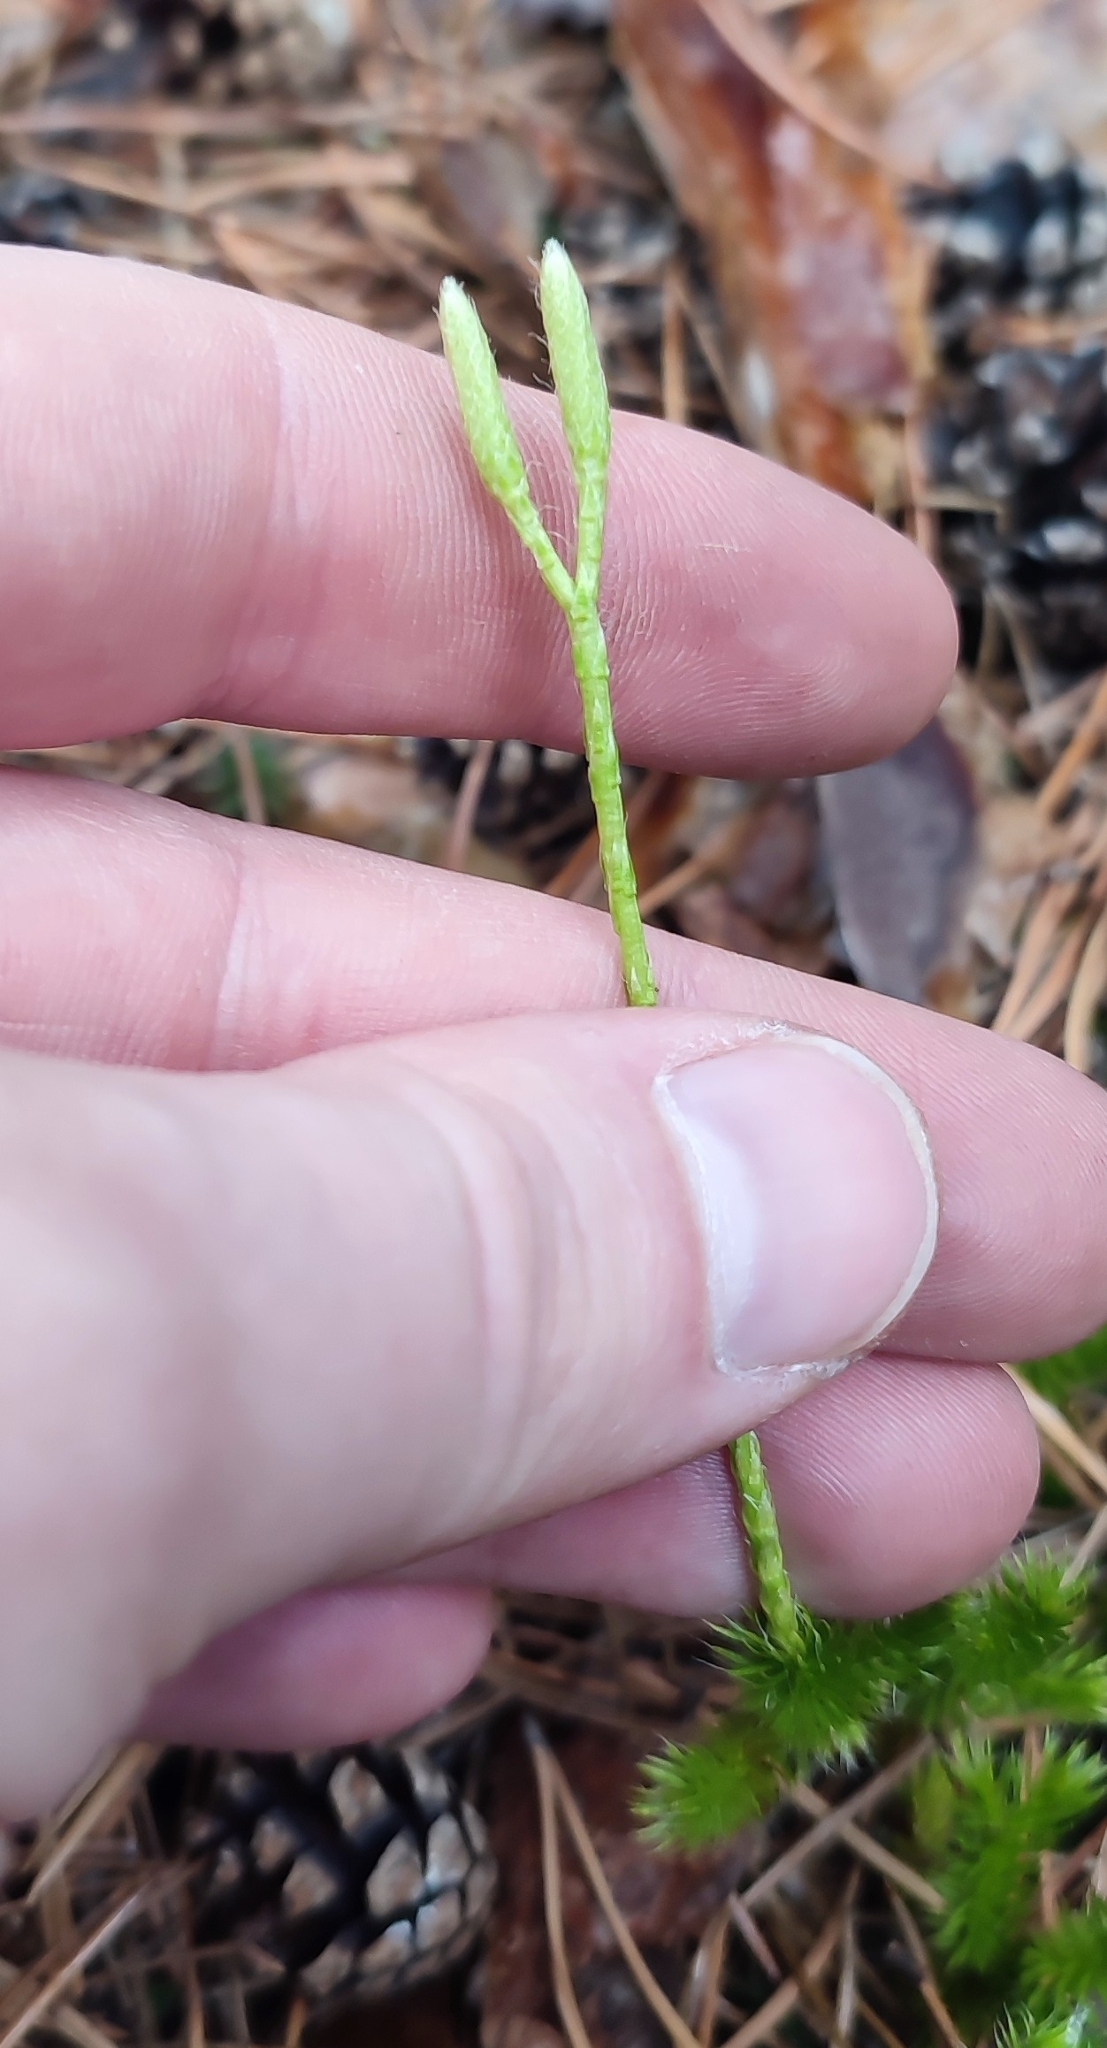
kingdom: Plantae
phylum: Tracheophyta
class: Lycopodiopsida
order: Lycopodiales
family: Lycopodiaceae
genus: Lycopodium
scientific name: Lycopodium clavatum
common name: Stag's-horn clubmoss
